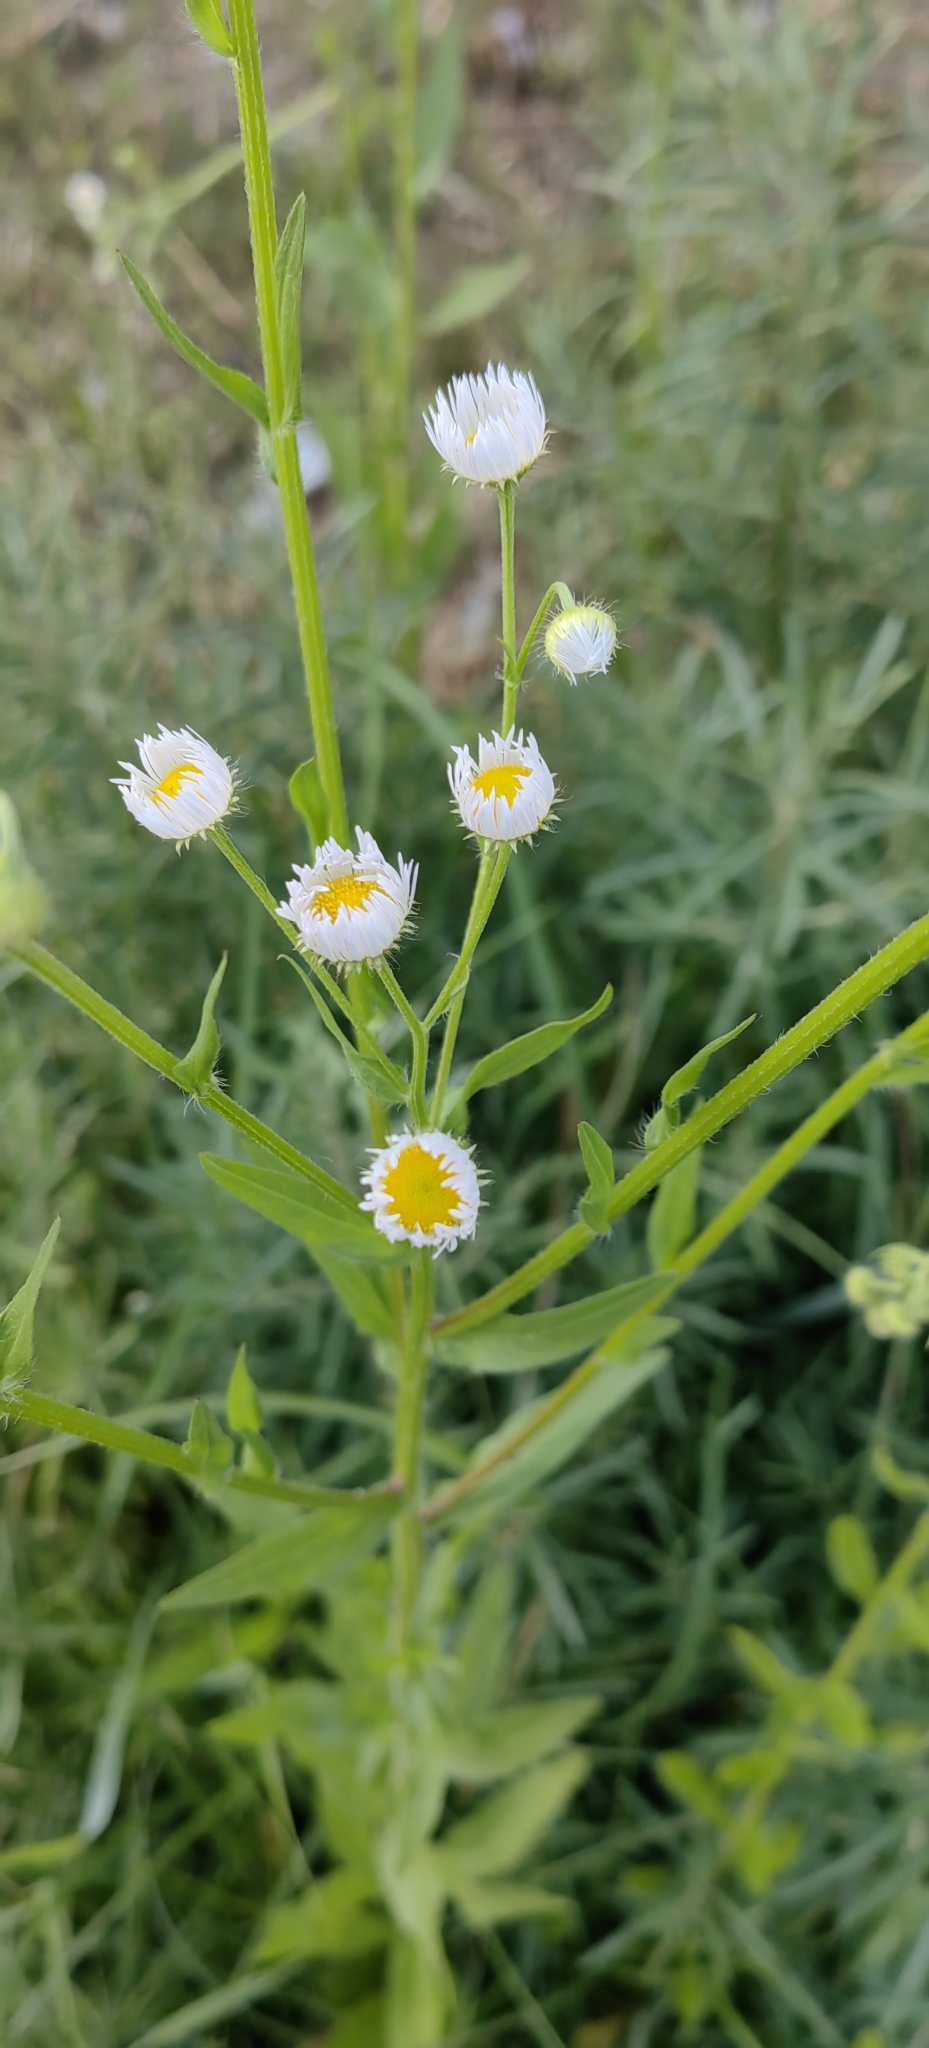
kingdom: Plantae
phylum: Tracheophyta
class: Magnoliopsida
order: Asterales
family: Asteraceae
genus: Erigeron
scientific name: Erigeron annuus
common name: Tall fleabane
